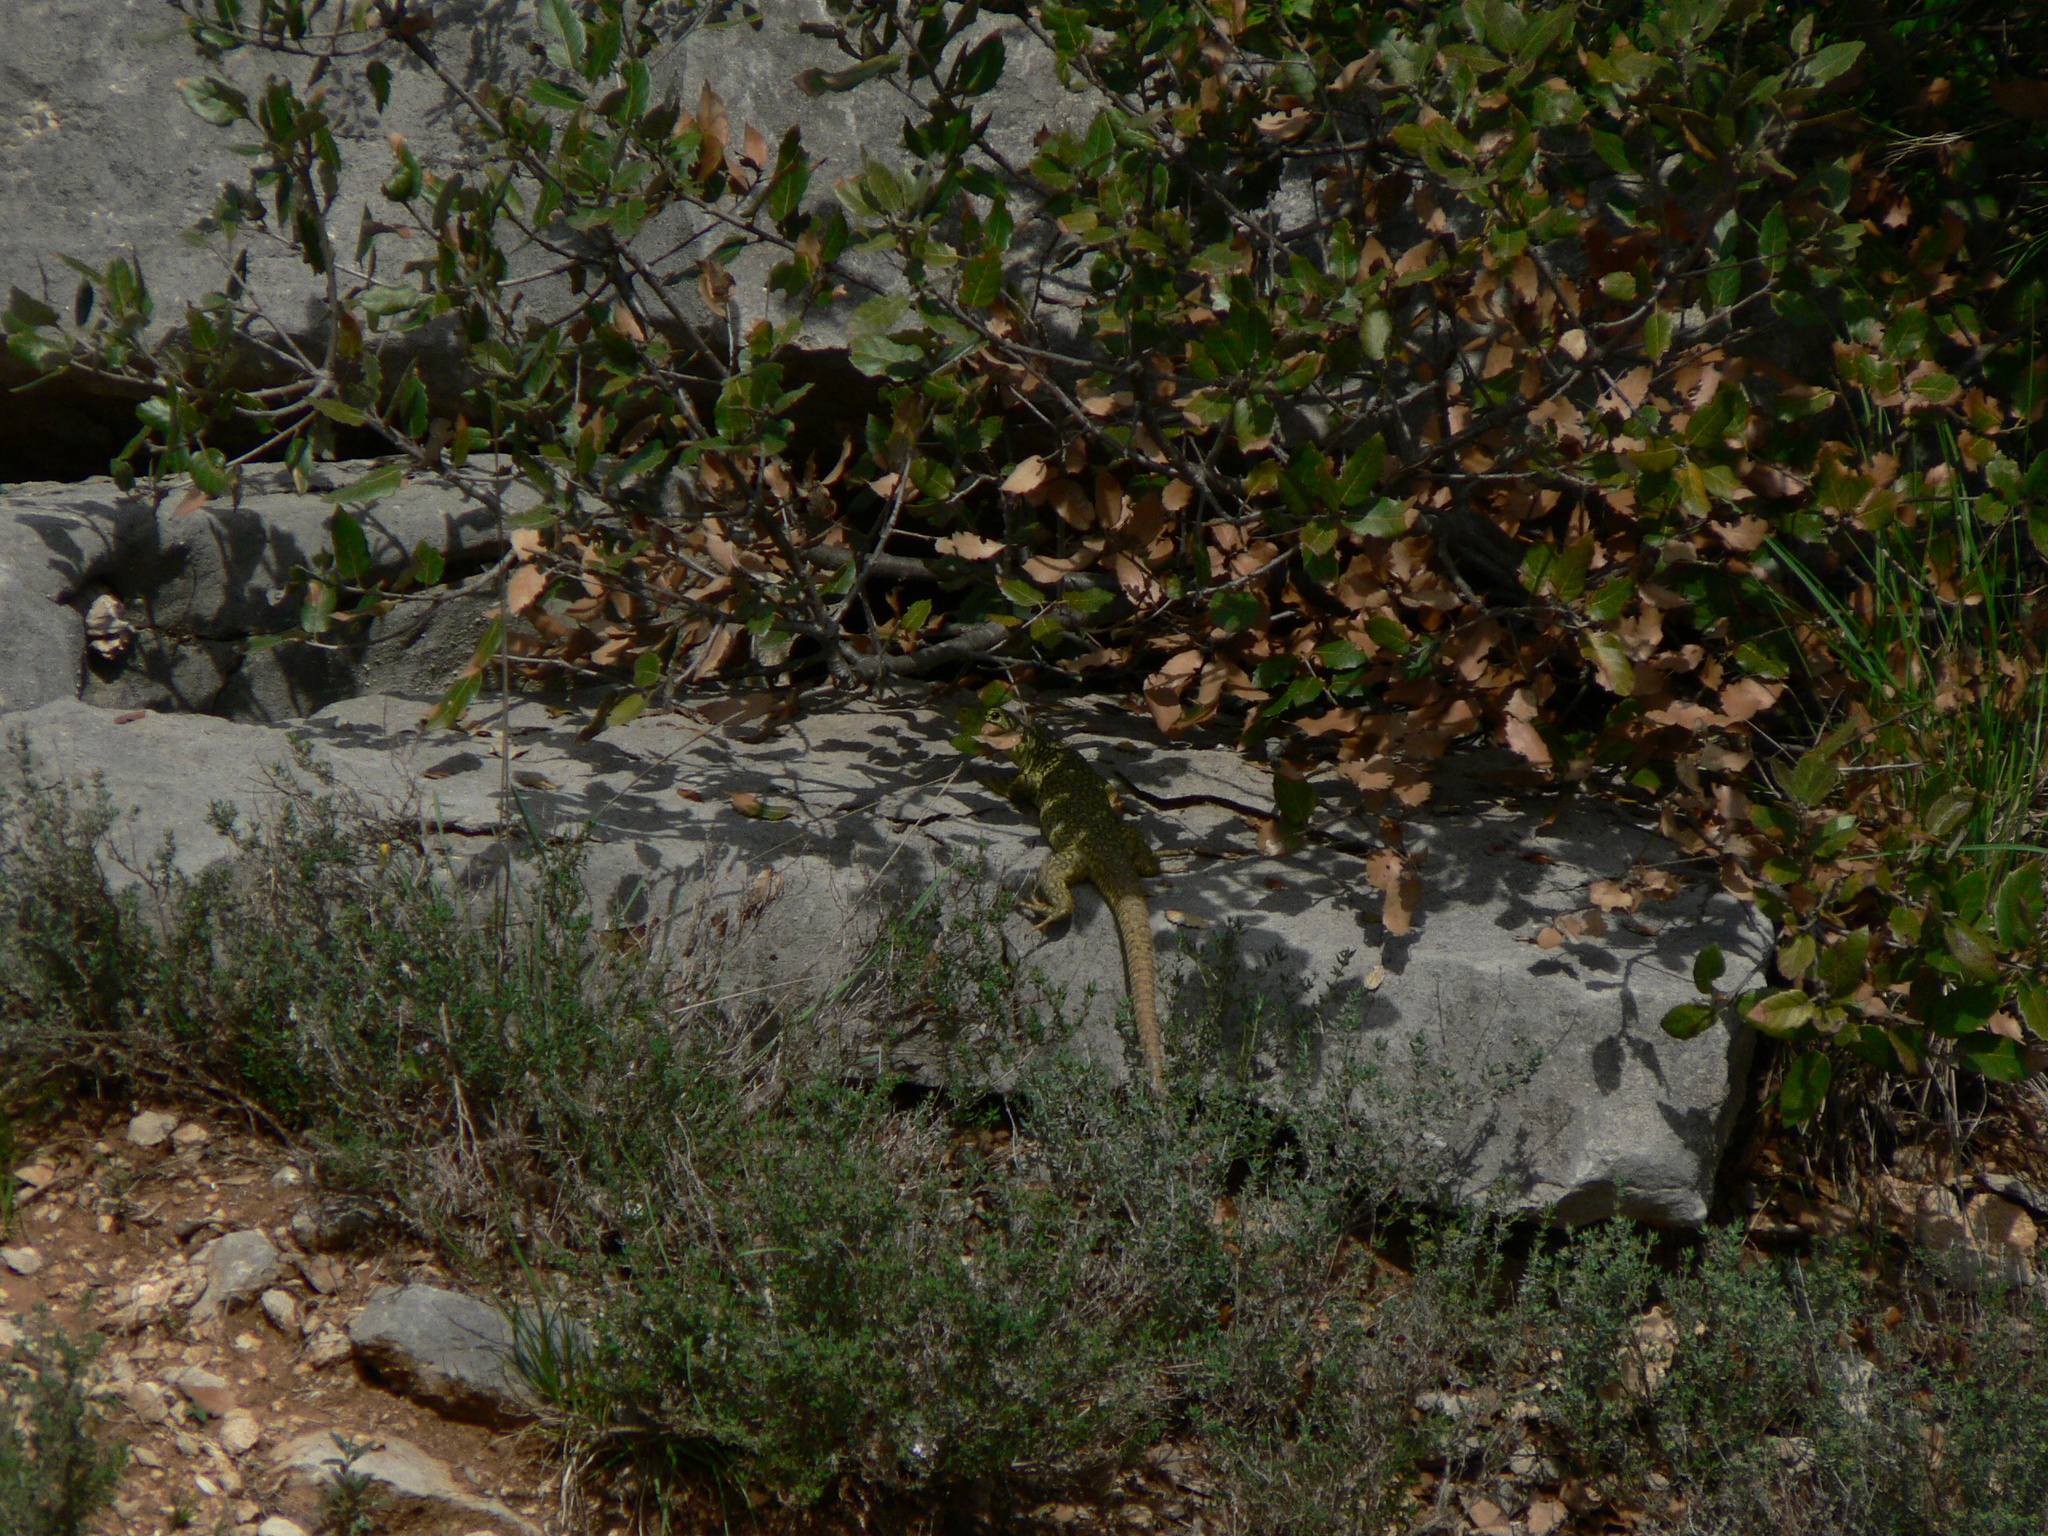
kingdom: Animalia
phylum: Chordata
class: Squamata
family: Lacertidae
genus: Timon
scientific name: Timon lepidus
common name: Ocellated lizard
